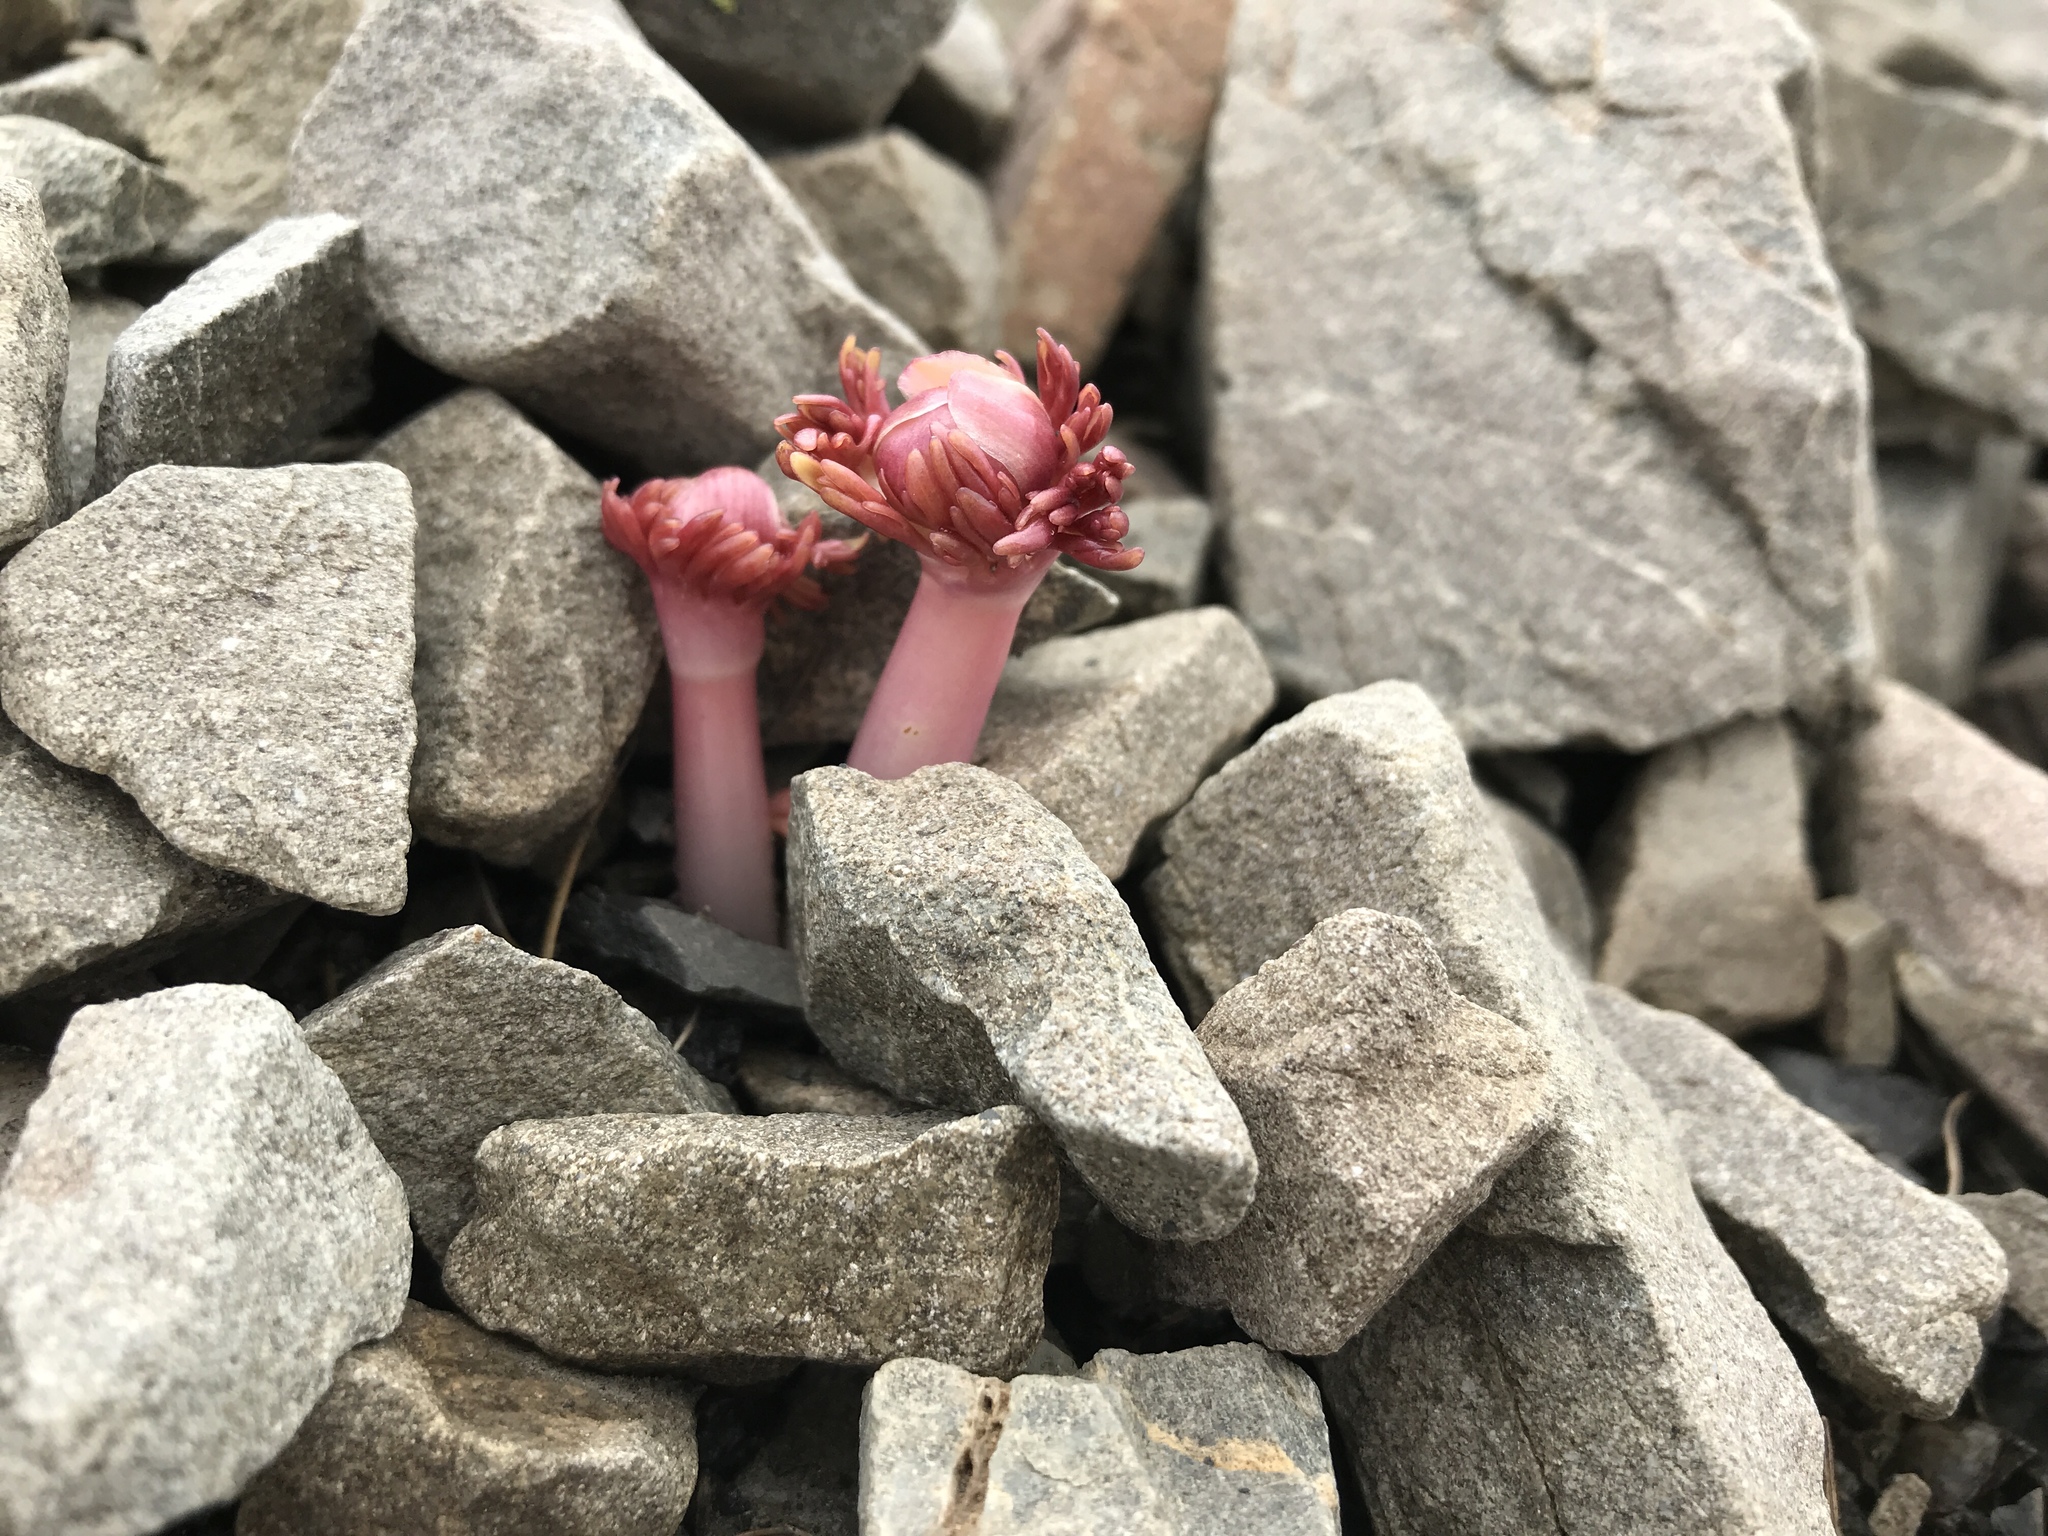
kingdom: Plantae
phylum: Tracheophyta
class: Magnoliopsida
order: Ranunculales
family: Ranunculaceae
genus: Ranunculus
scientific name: Ranunculus haastii
